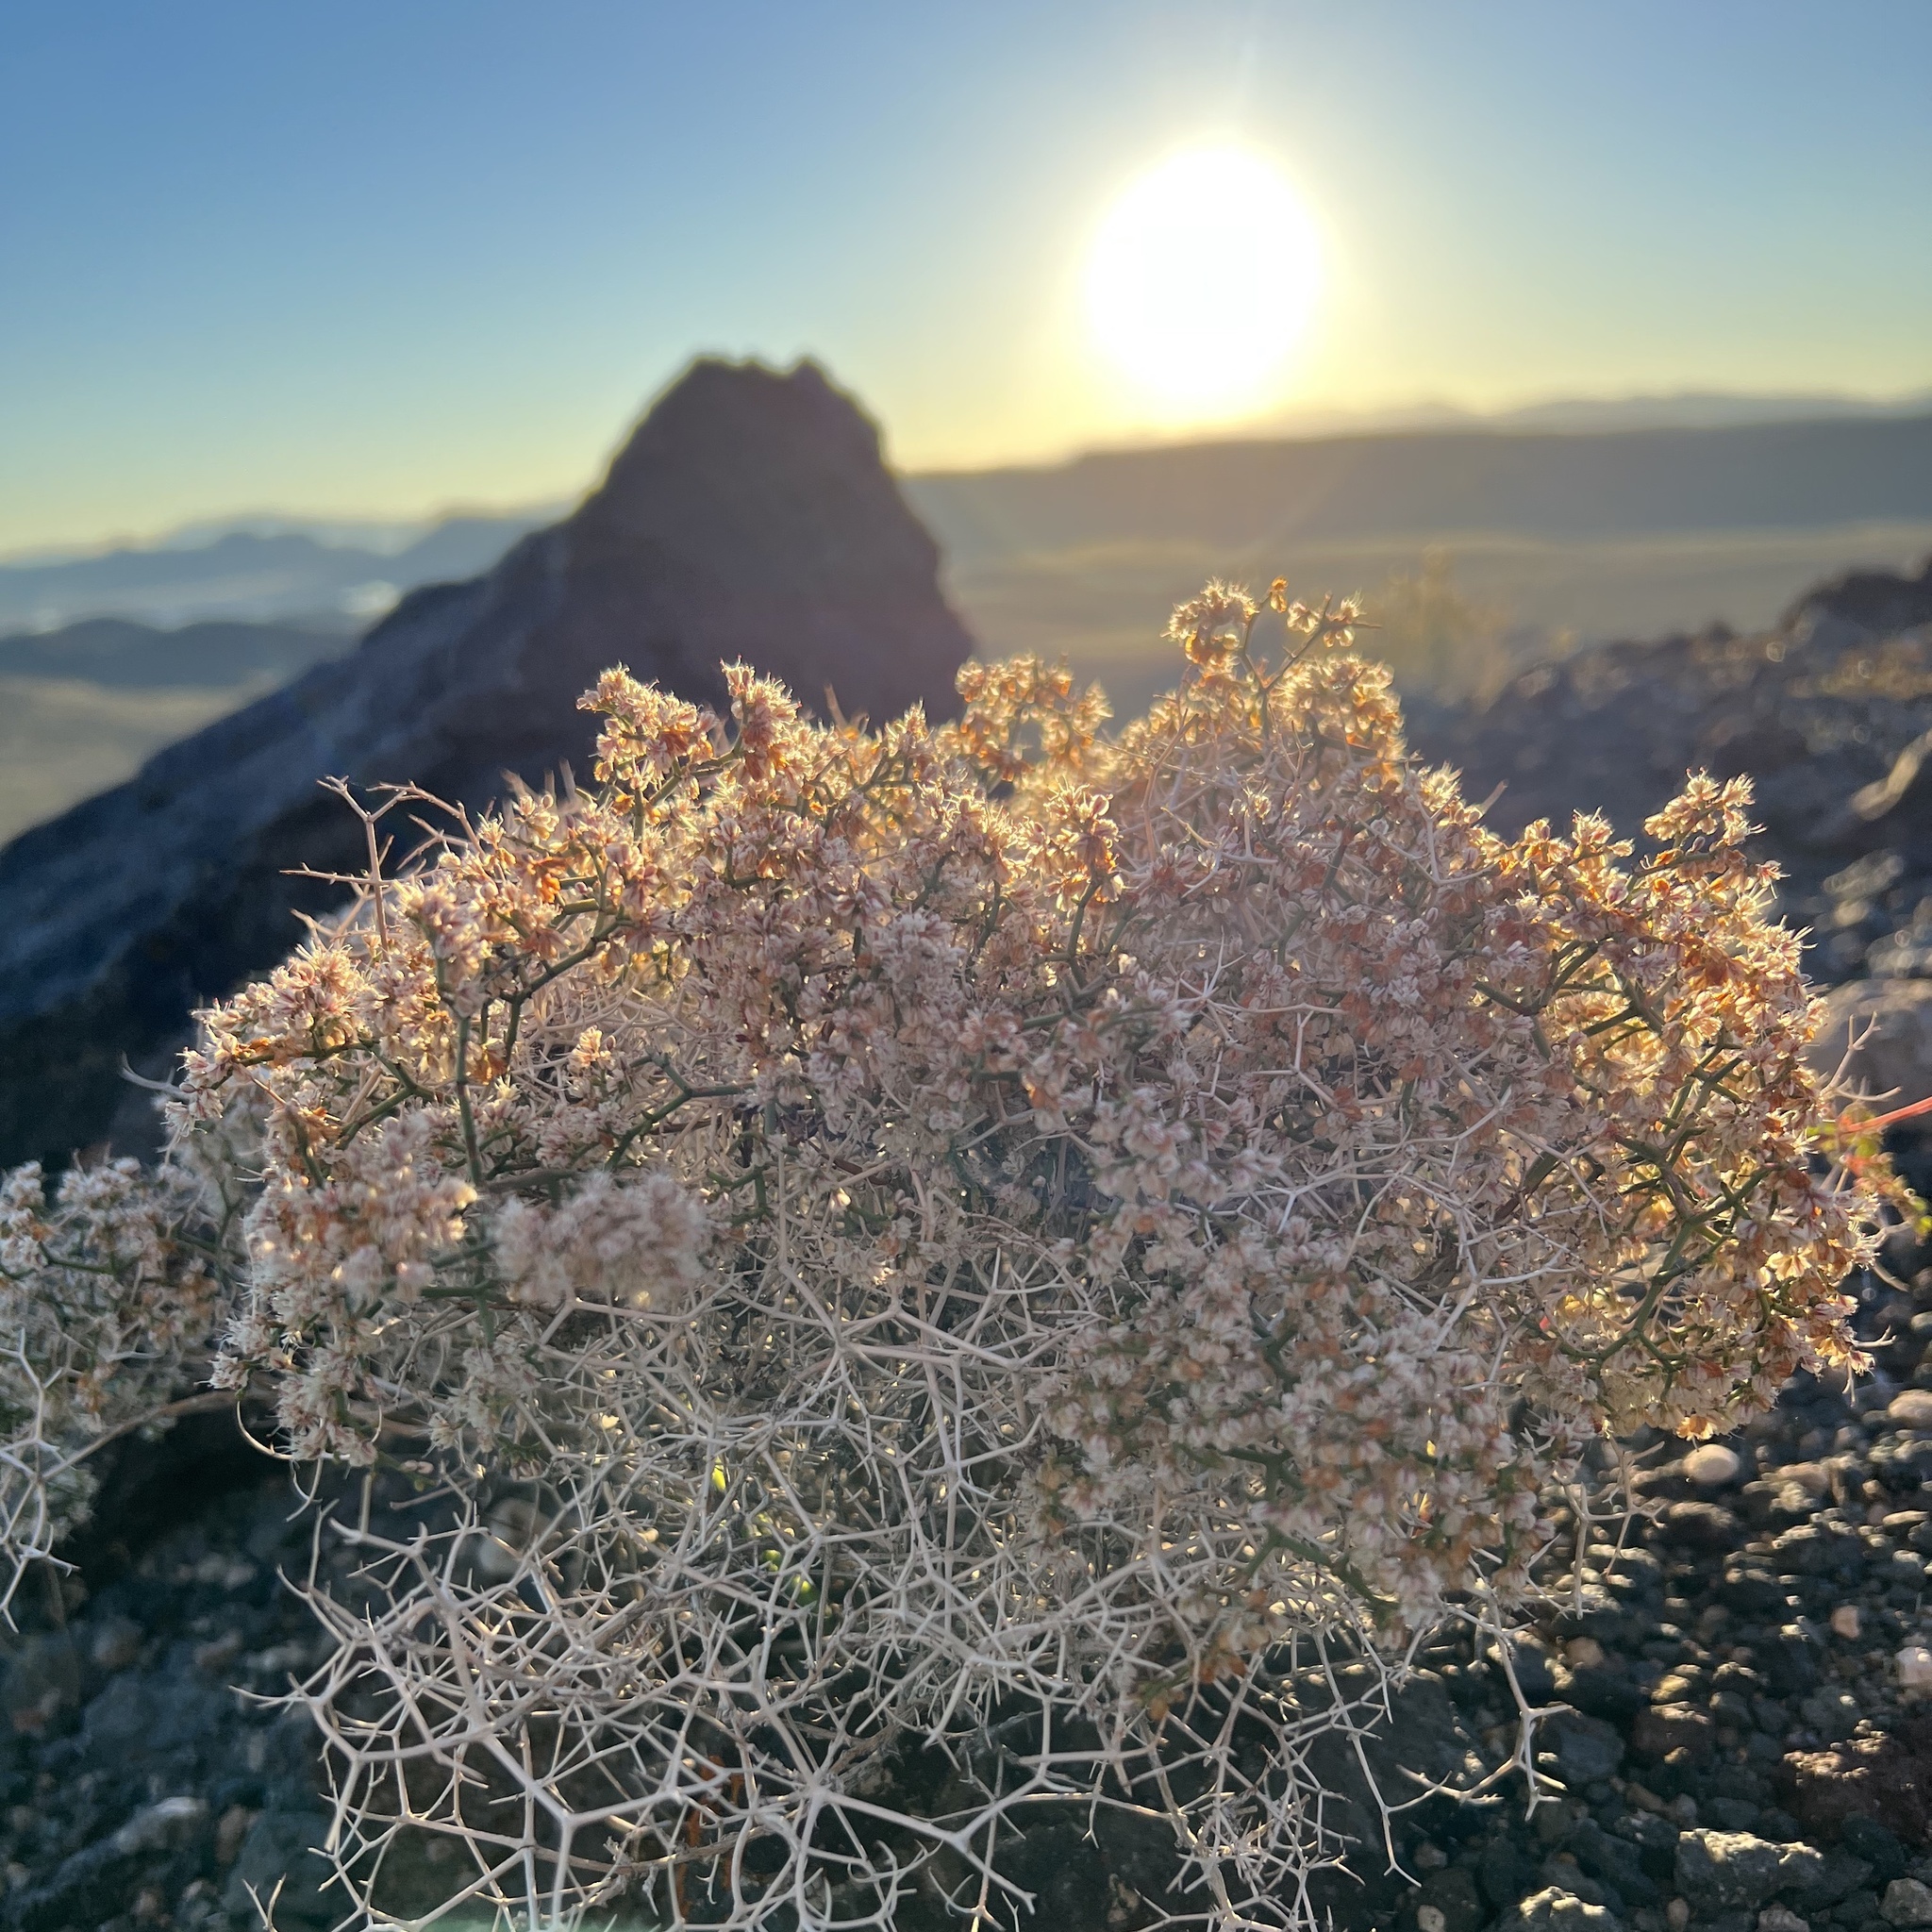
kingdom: Plantae
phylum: Tracheophyta
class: Magnoliopsida
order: Caryophyllales
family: Polygonaceae
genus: Eriogonum
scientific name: Eriogonum heermannii
